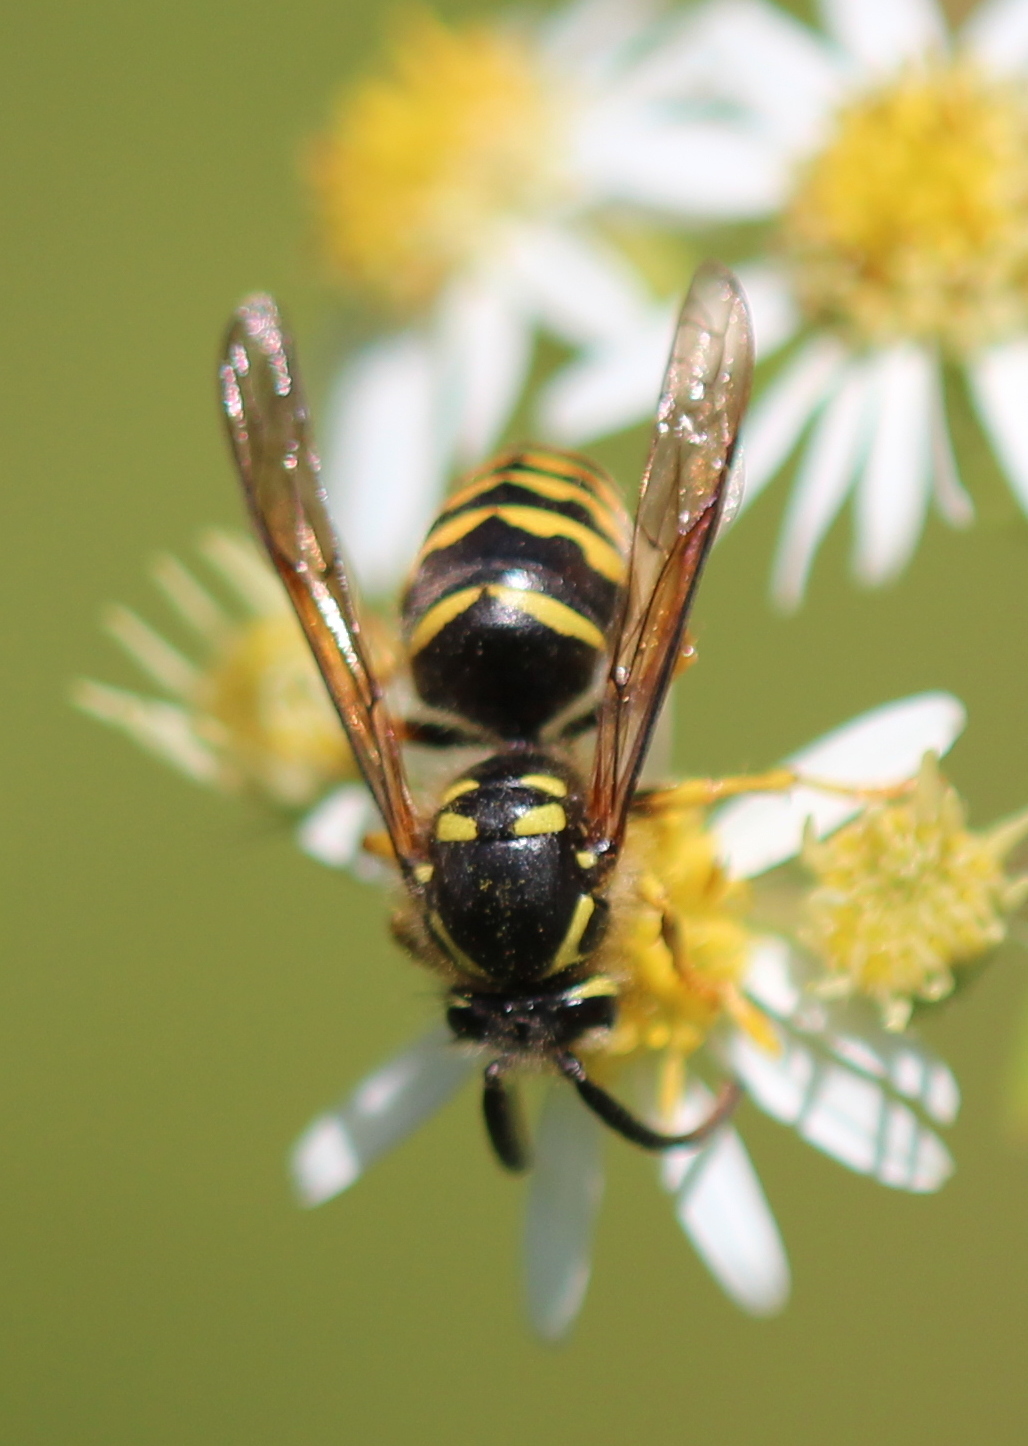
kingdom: Animalia
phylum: Arthropoda
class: Insecta
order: Hymenoptera
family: Vespidae
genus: Dolichovespula
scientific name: Dolichovespula arenaria
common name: Aerial yellowjacket
